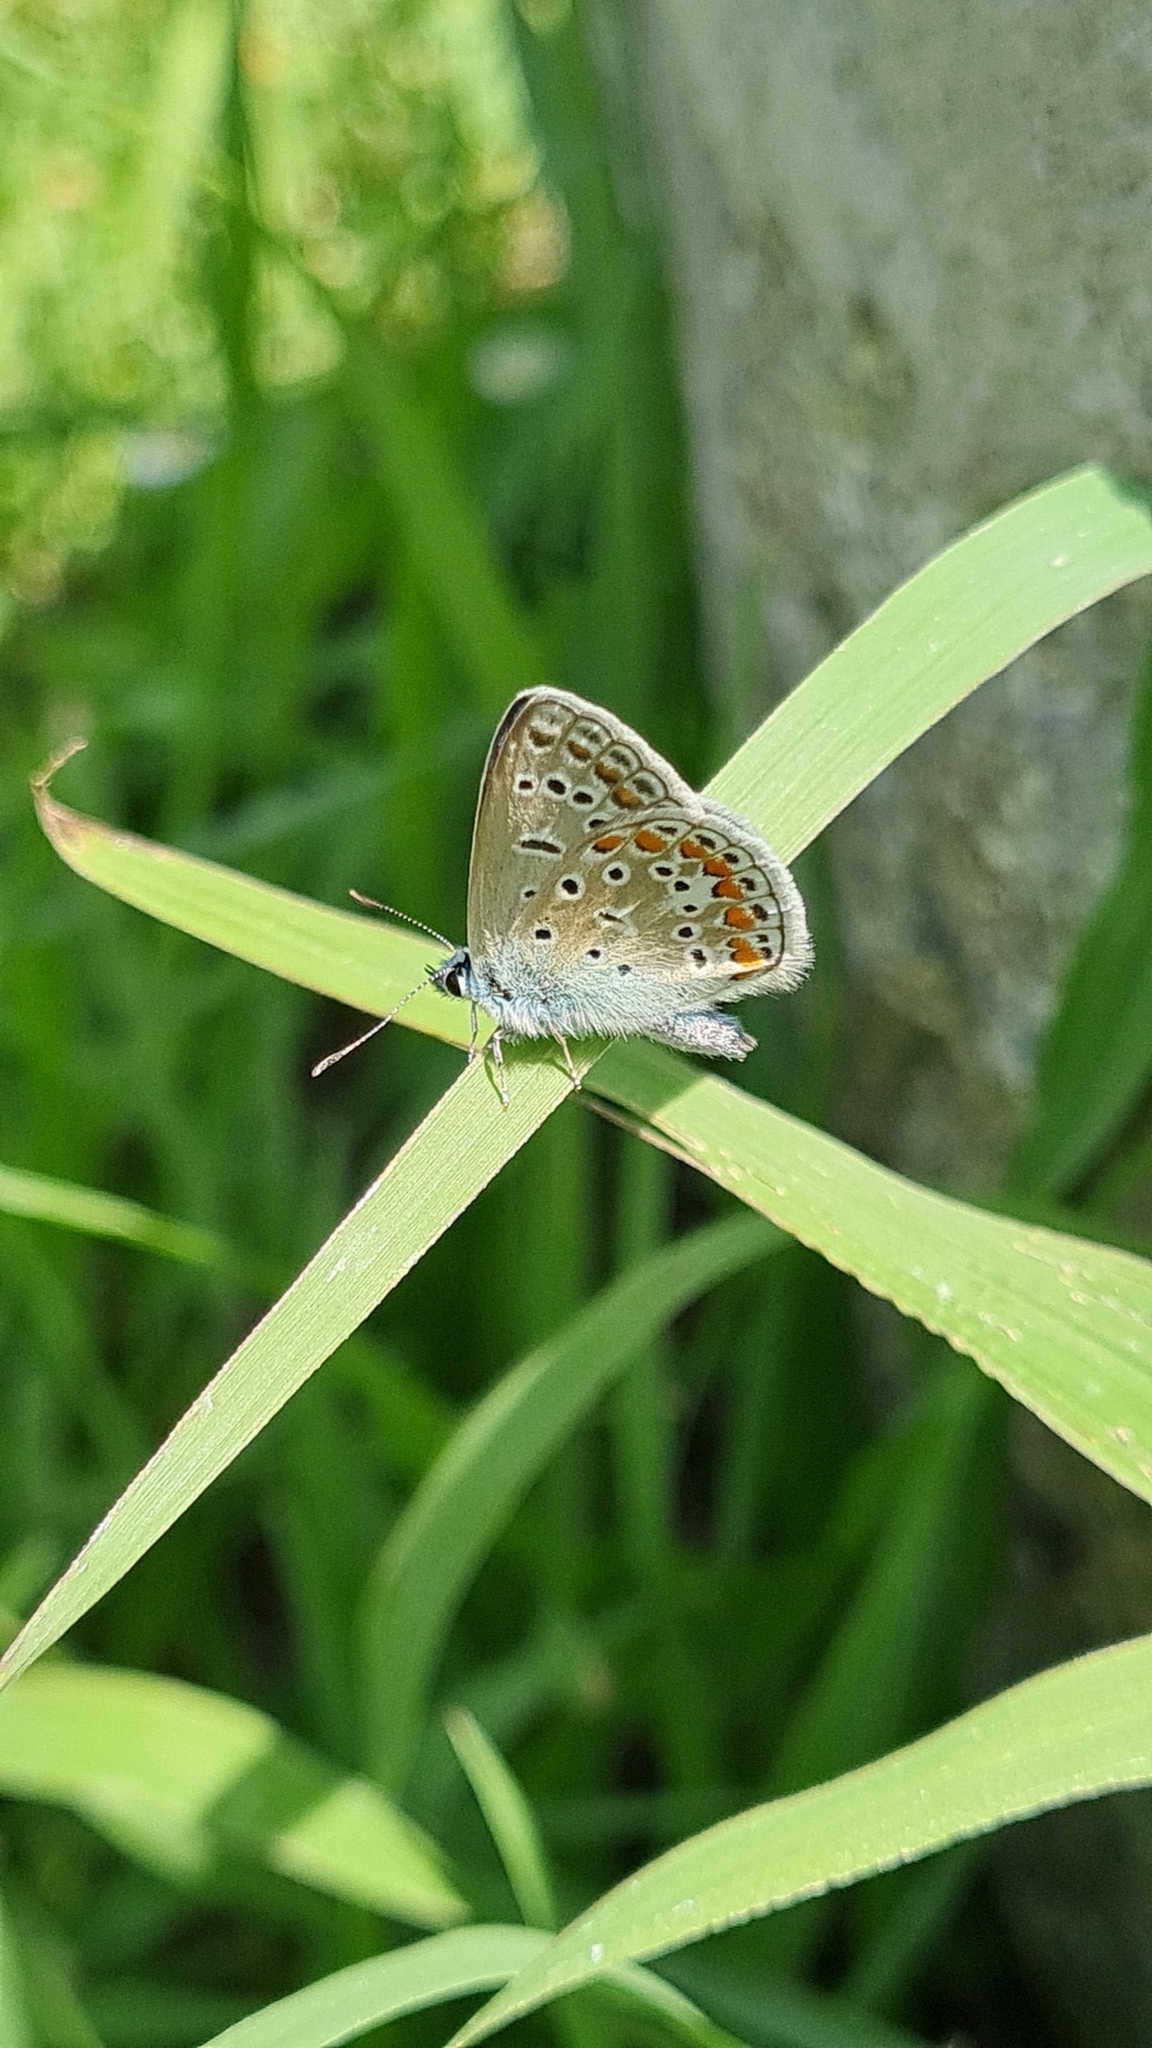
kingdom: Animalia
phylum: Arthropoda
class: Insecta
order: Lepidoptera
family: Lycaenidae
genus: Polyommatus
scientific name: Polyommatus icarus
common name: Common blue
